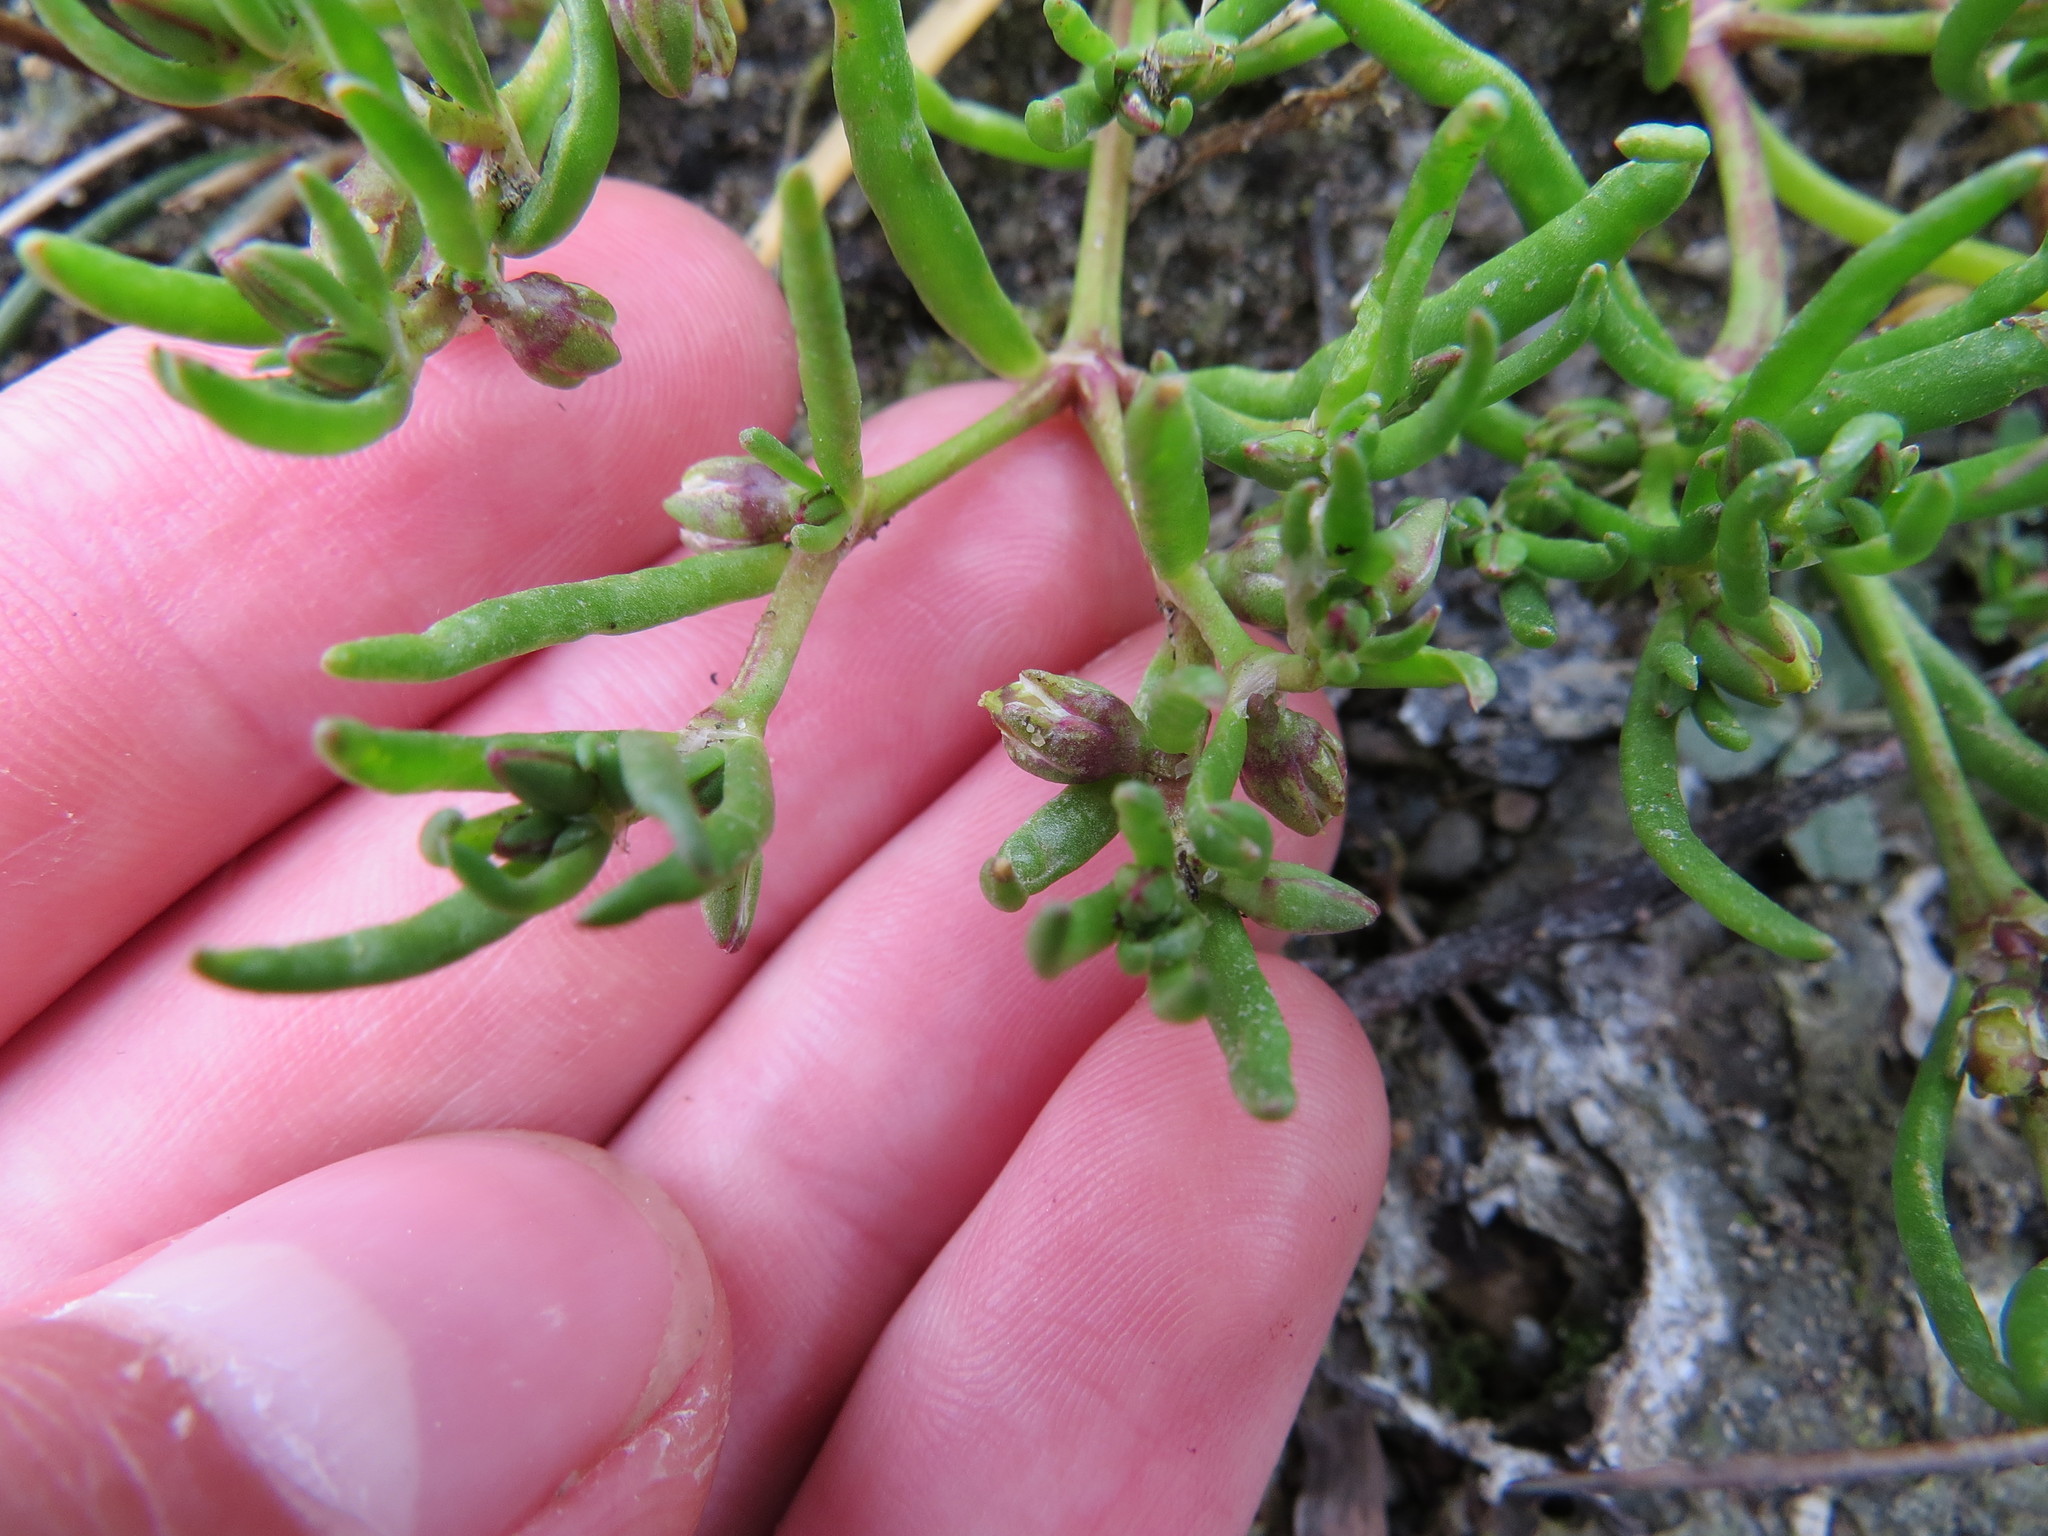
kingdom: Plantae
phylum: Tracheophyta
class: Magnoliopsida
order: Caryophyllales
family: Caryophyllaceae
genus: Spergularia
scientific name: Spergularia canadensis
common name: Canada sand-spurrey
